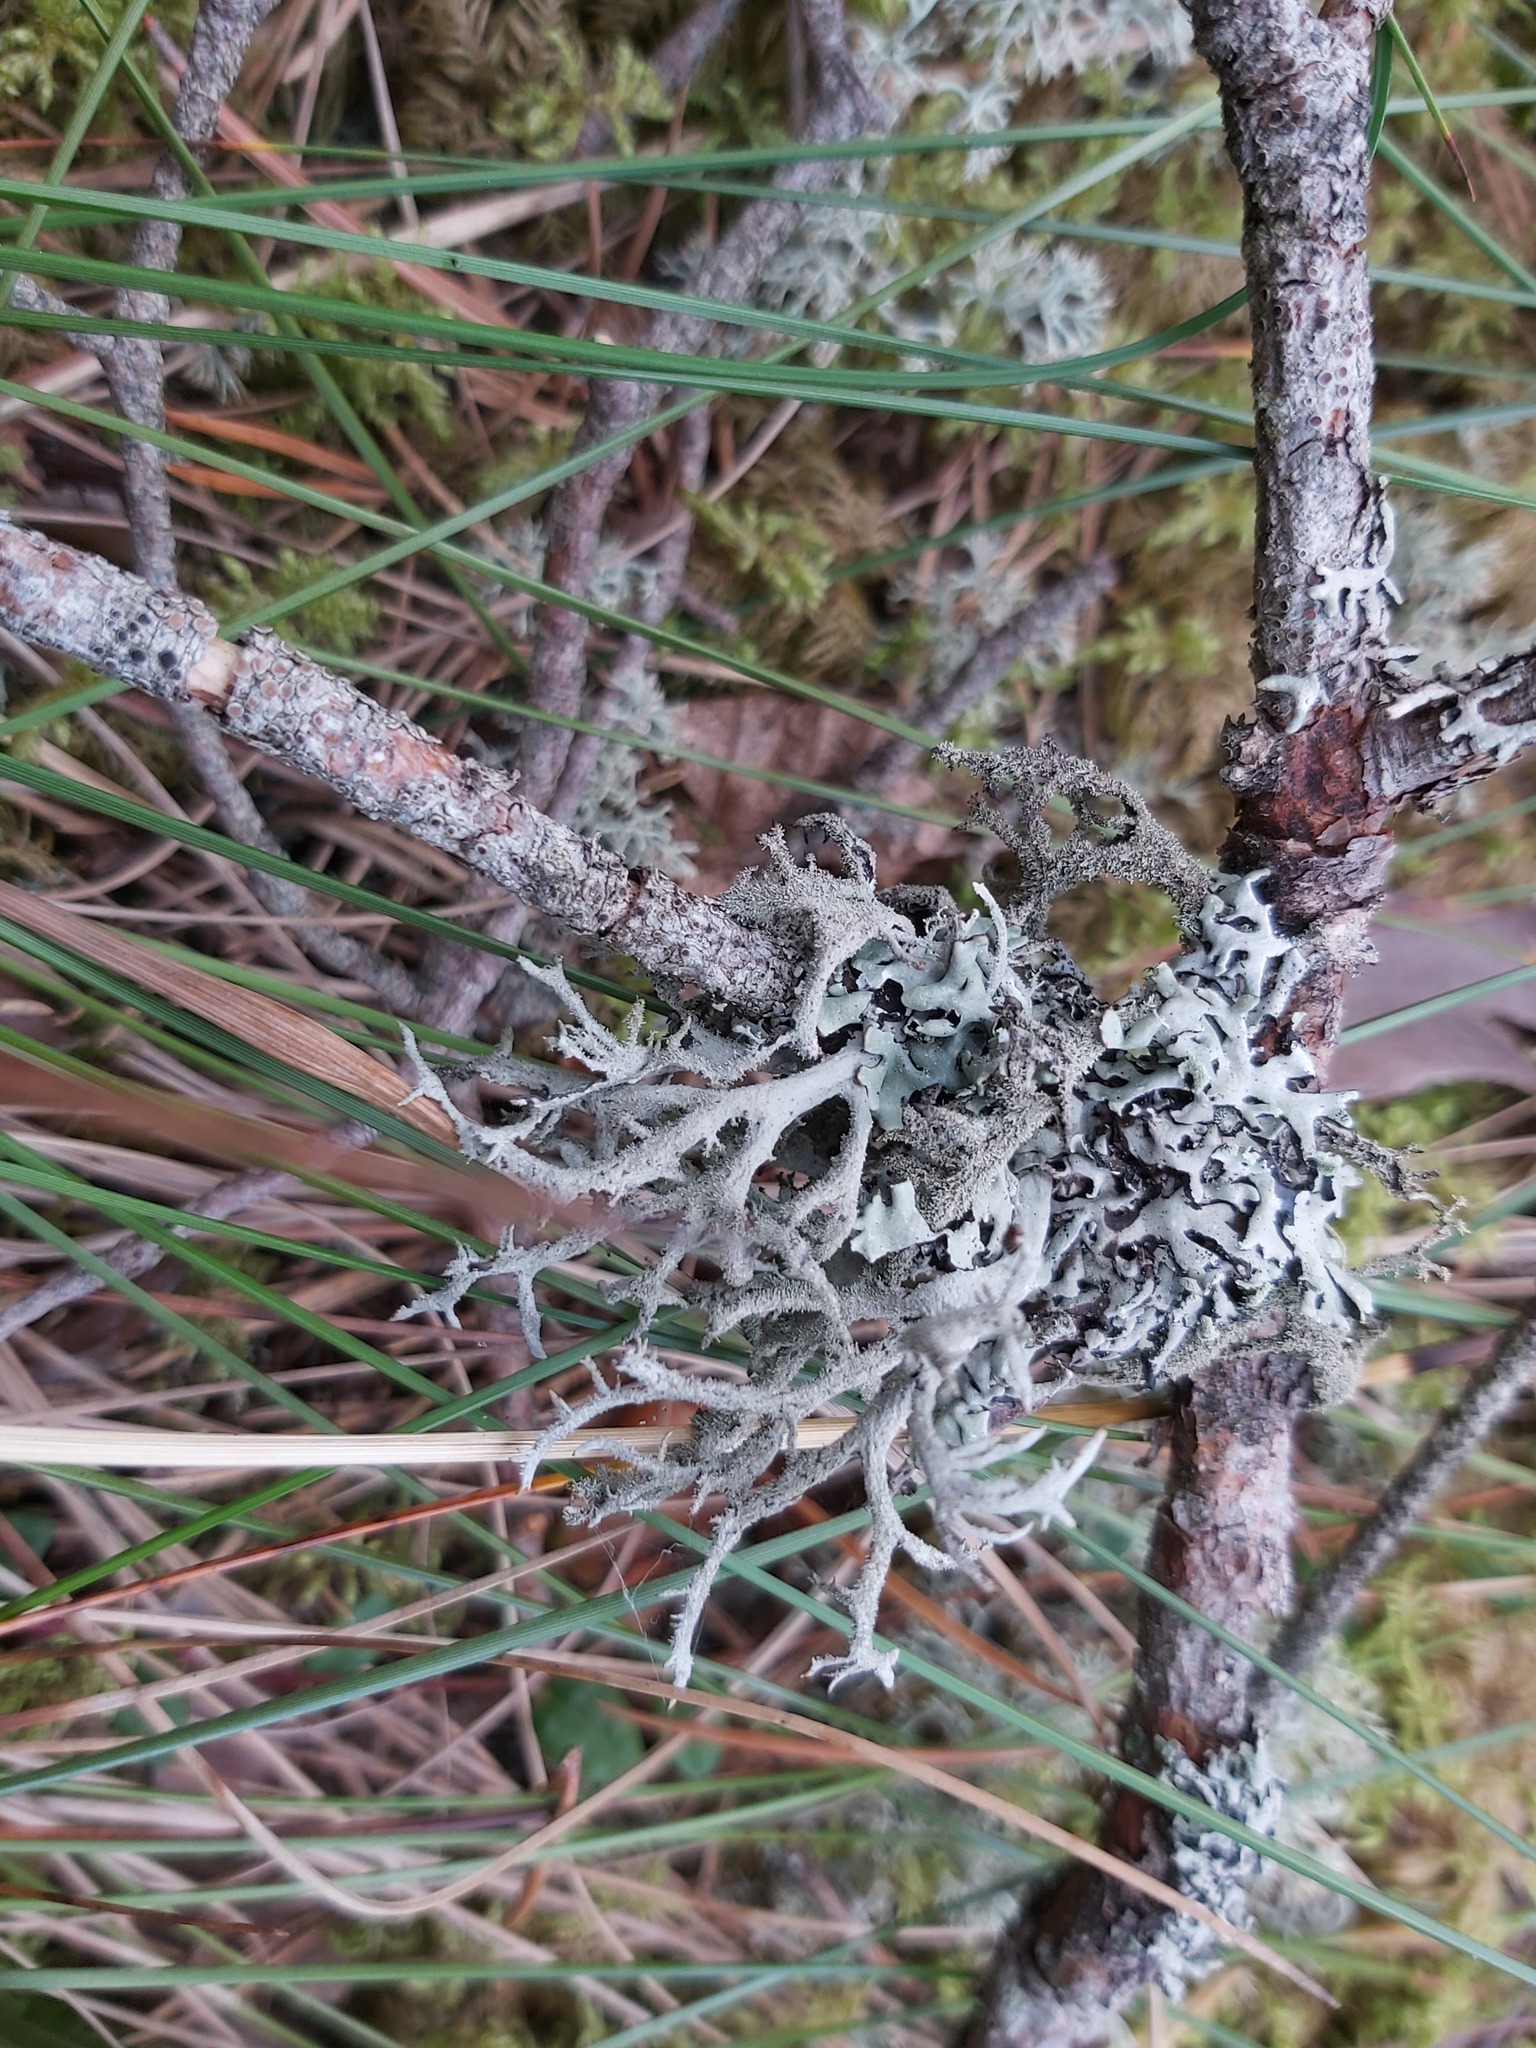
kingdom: Fungi
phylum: Ascomycota
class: Lecanoromycetes
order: Lecanorales
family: Parmeliaceae
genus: Pseudevernia
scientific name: Pseudevernia furfuracea
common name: Tree moss
